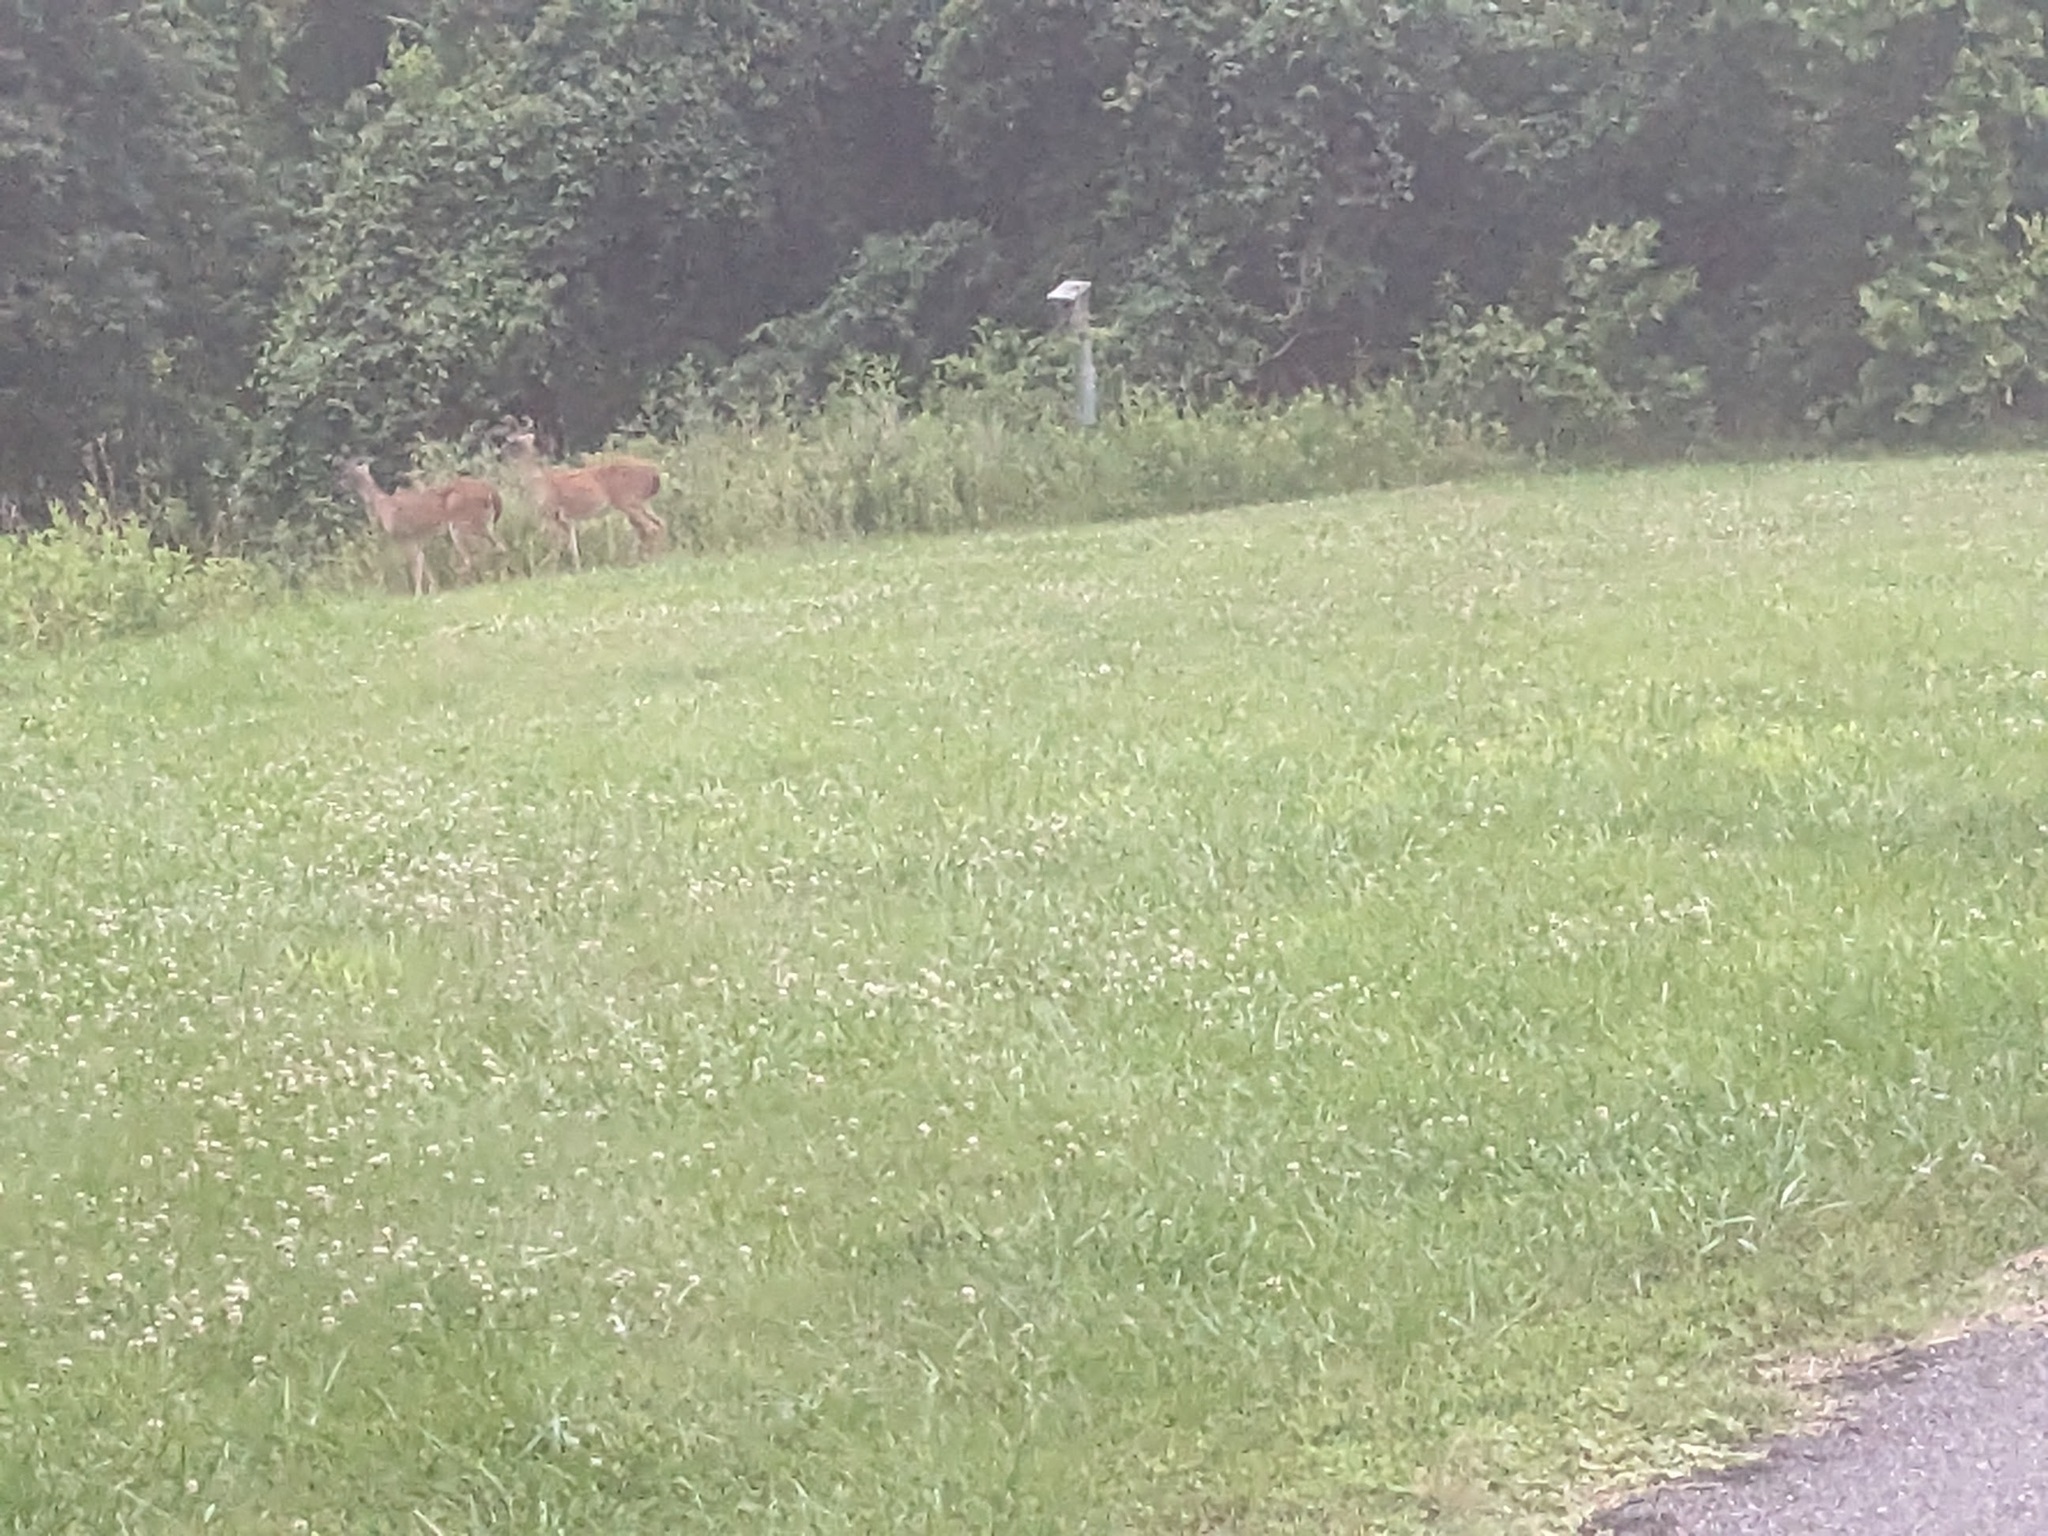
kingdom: Animalia
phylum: Chordata
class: Mammalia
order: Artiodactyla
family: Cervidae
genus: Odocoileus
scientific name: Odocoileus virginianus
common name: White-tailed deer
